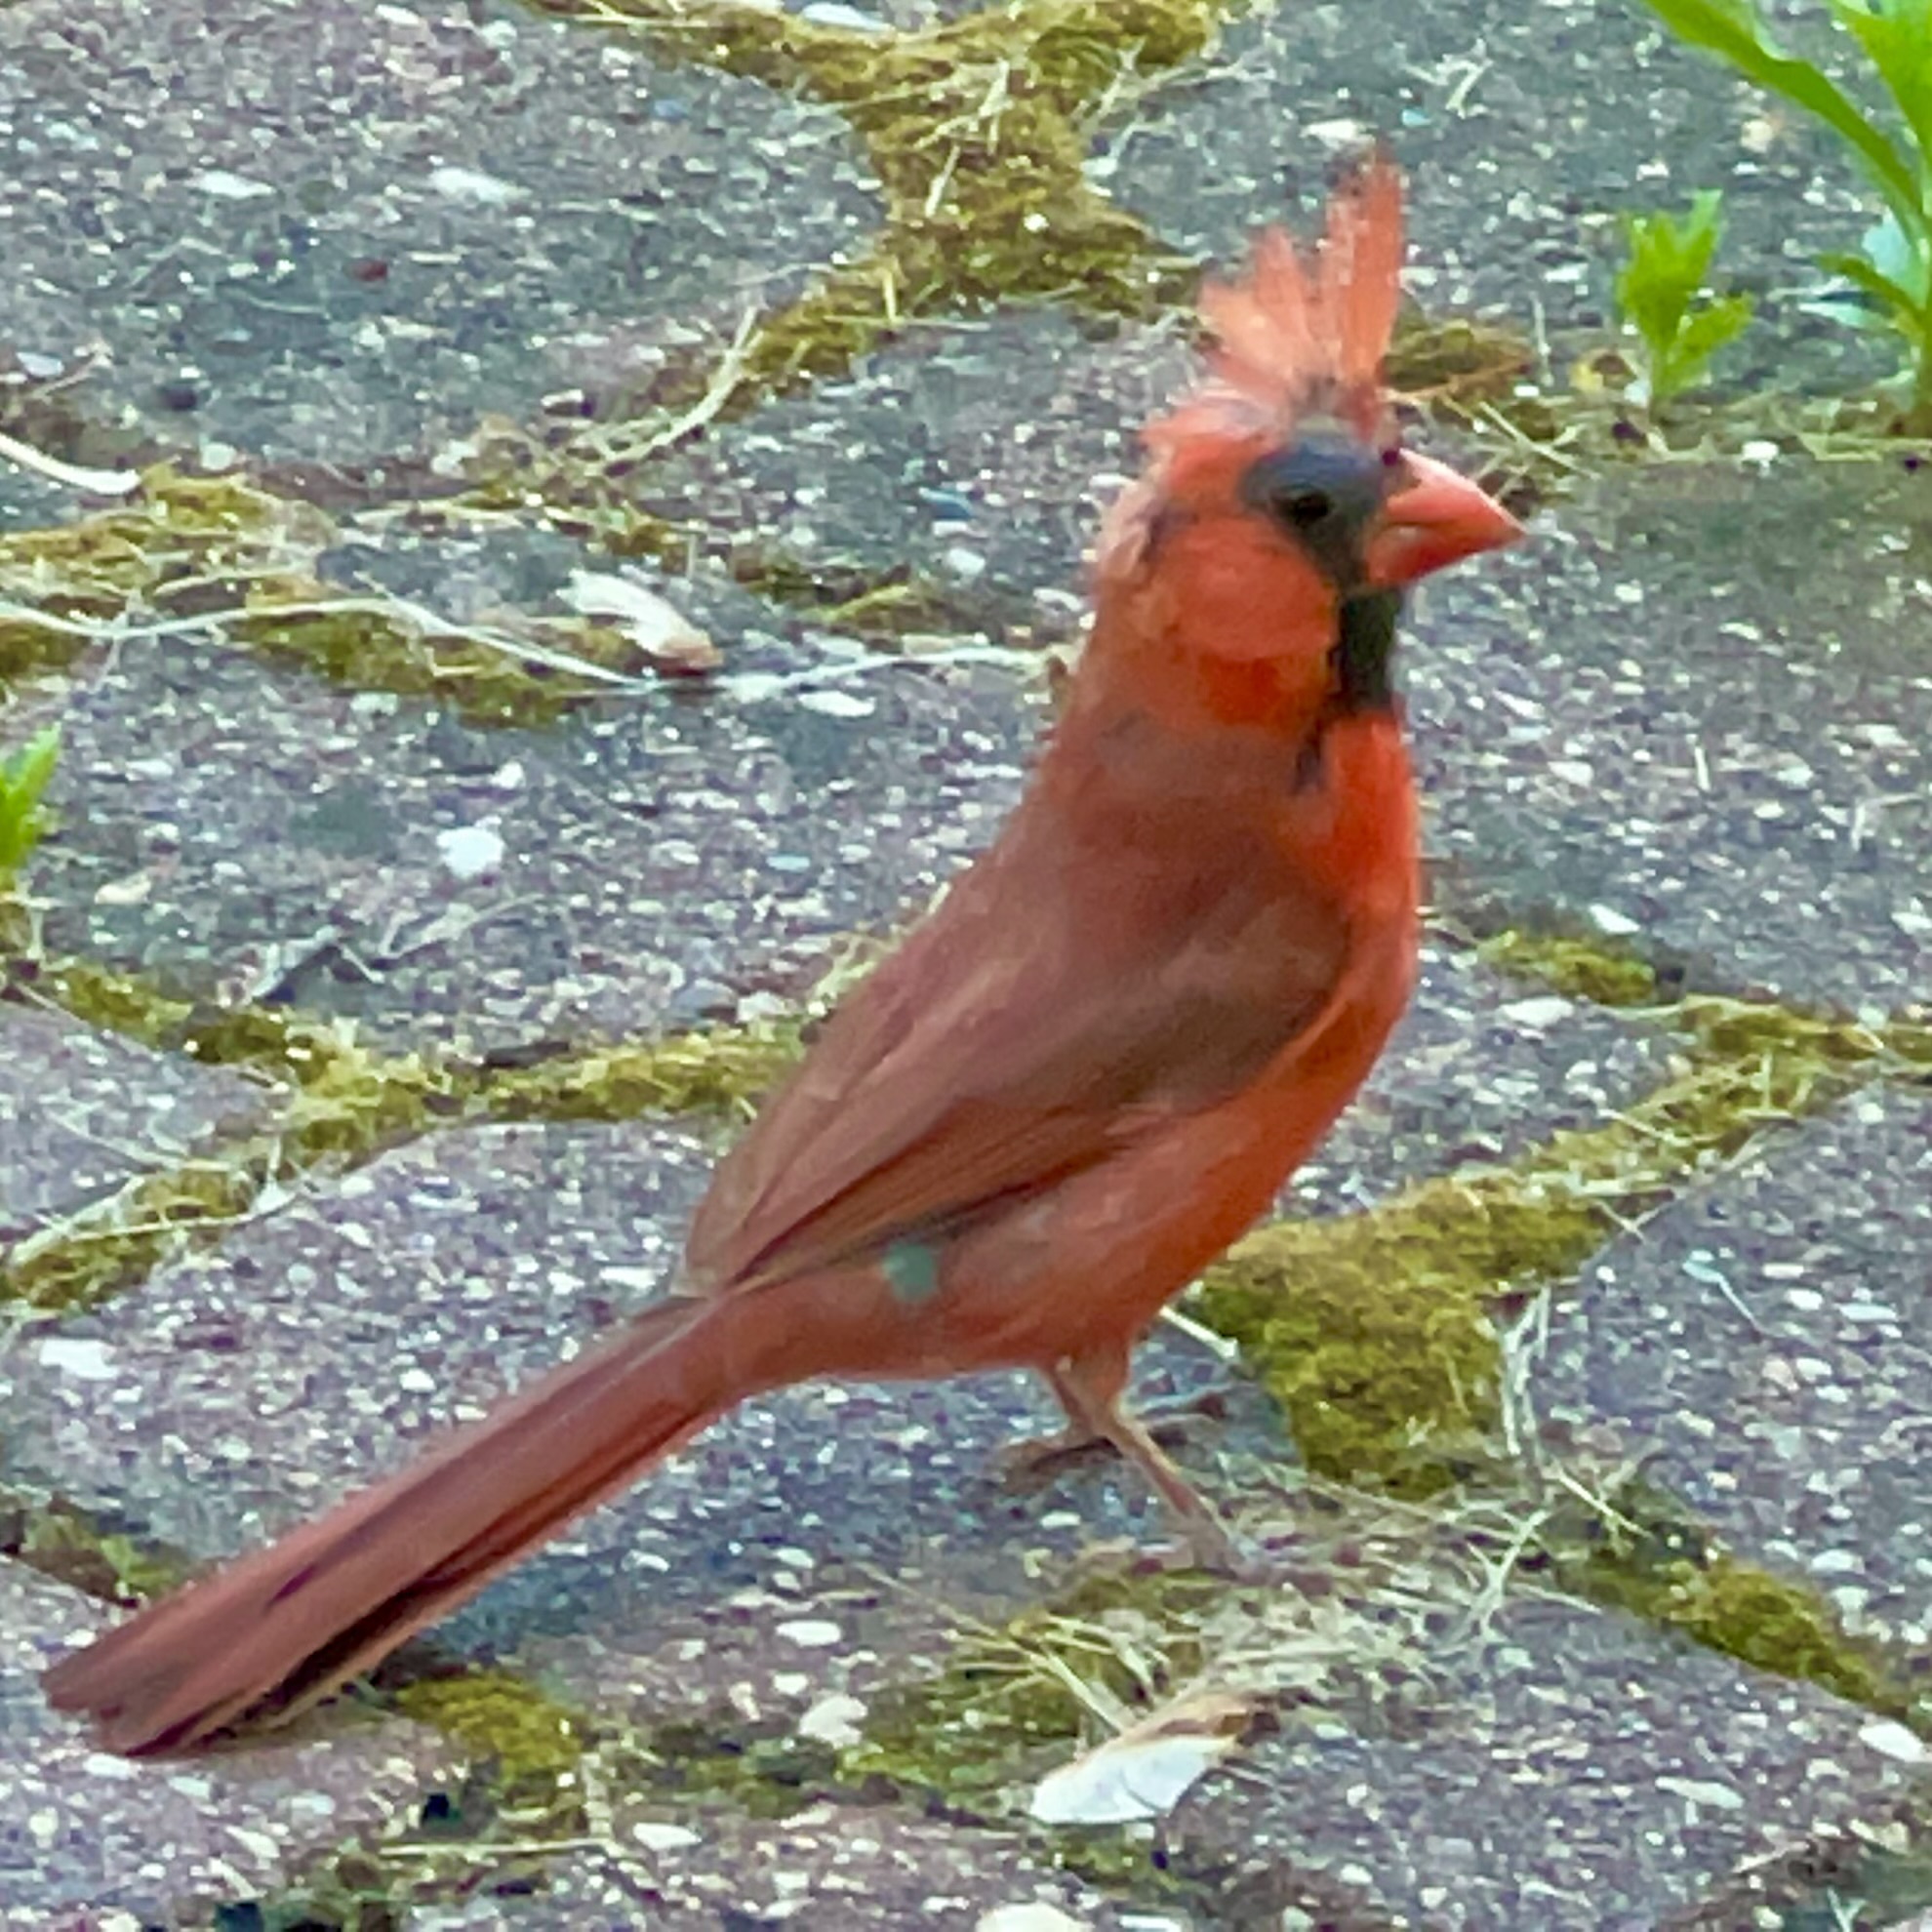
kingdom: Animalia
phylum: Chordata
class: Aves
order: Passeriformes
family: Cardinalidae
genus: Cardinalis
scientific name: Cardinalis cardinalis
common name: Northern cardinal
